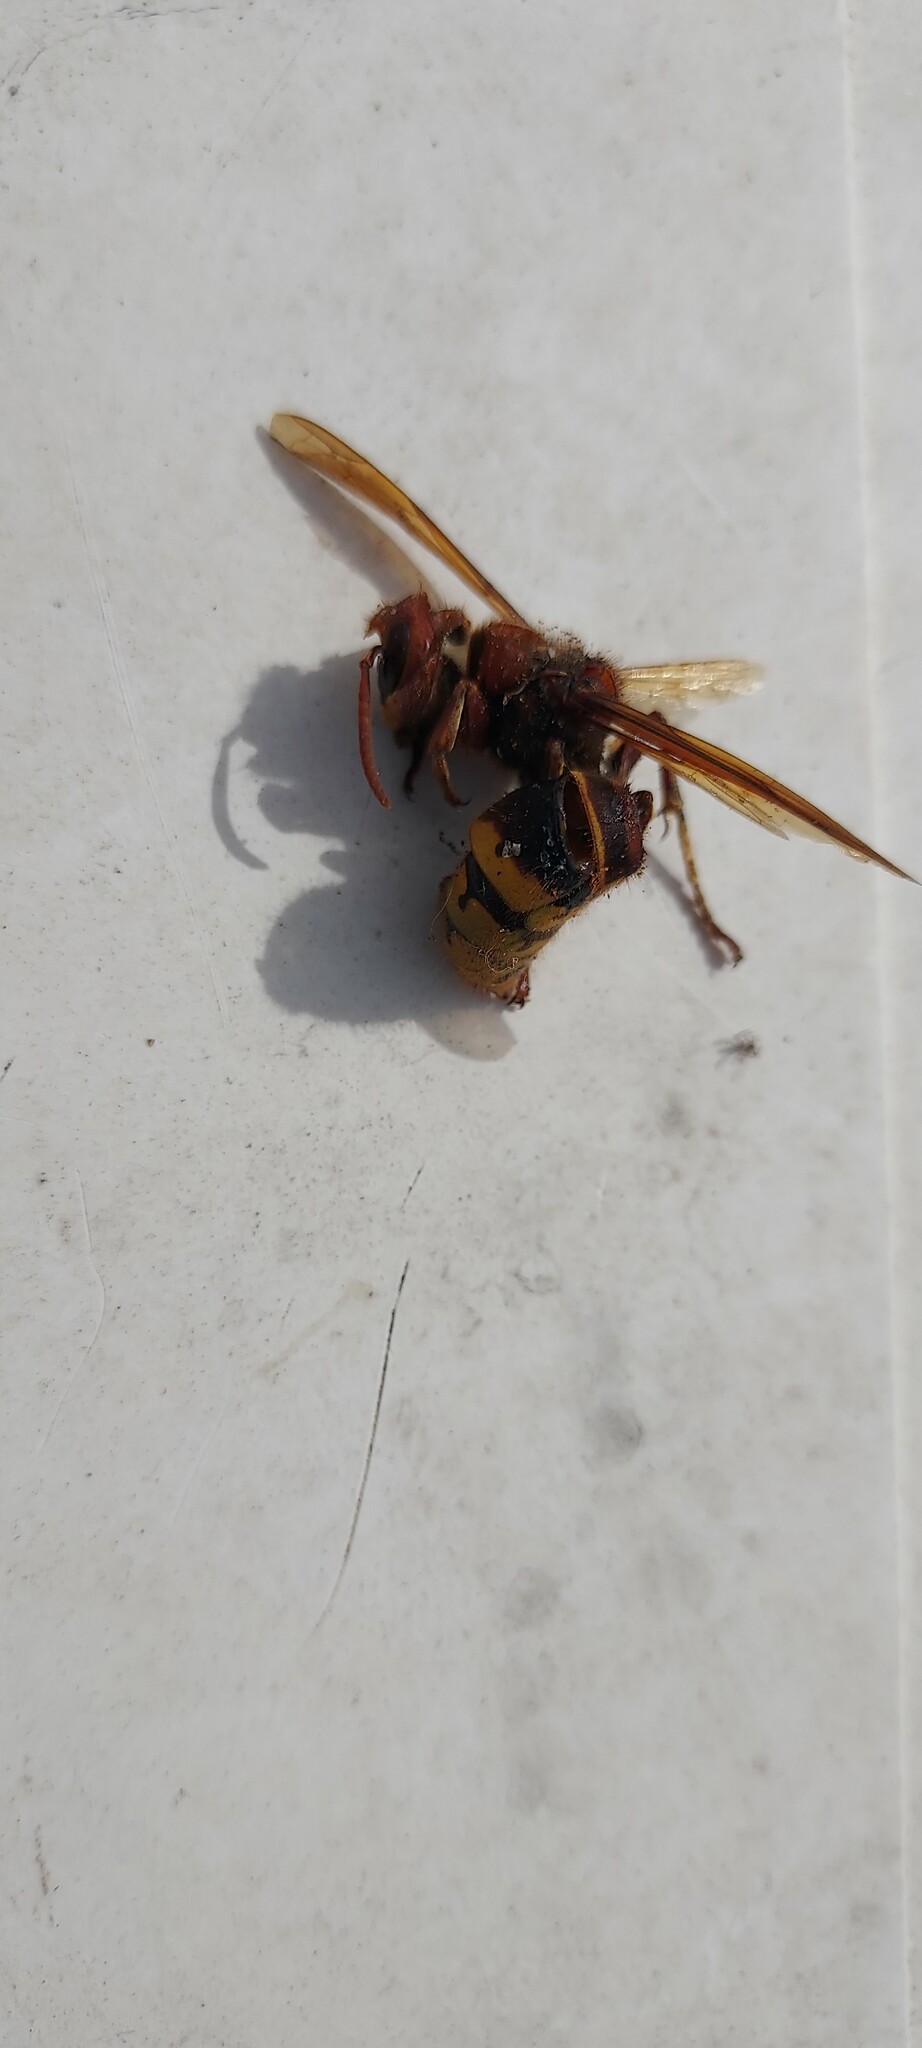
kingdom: Animalia
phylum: Arthropoda
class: Insecta
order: Hymenoptera
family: Vespidae
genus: Vespa
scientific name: Vespa crabro
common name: Hornet
